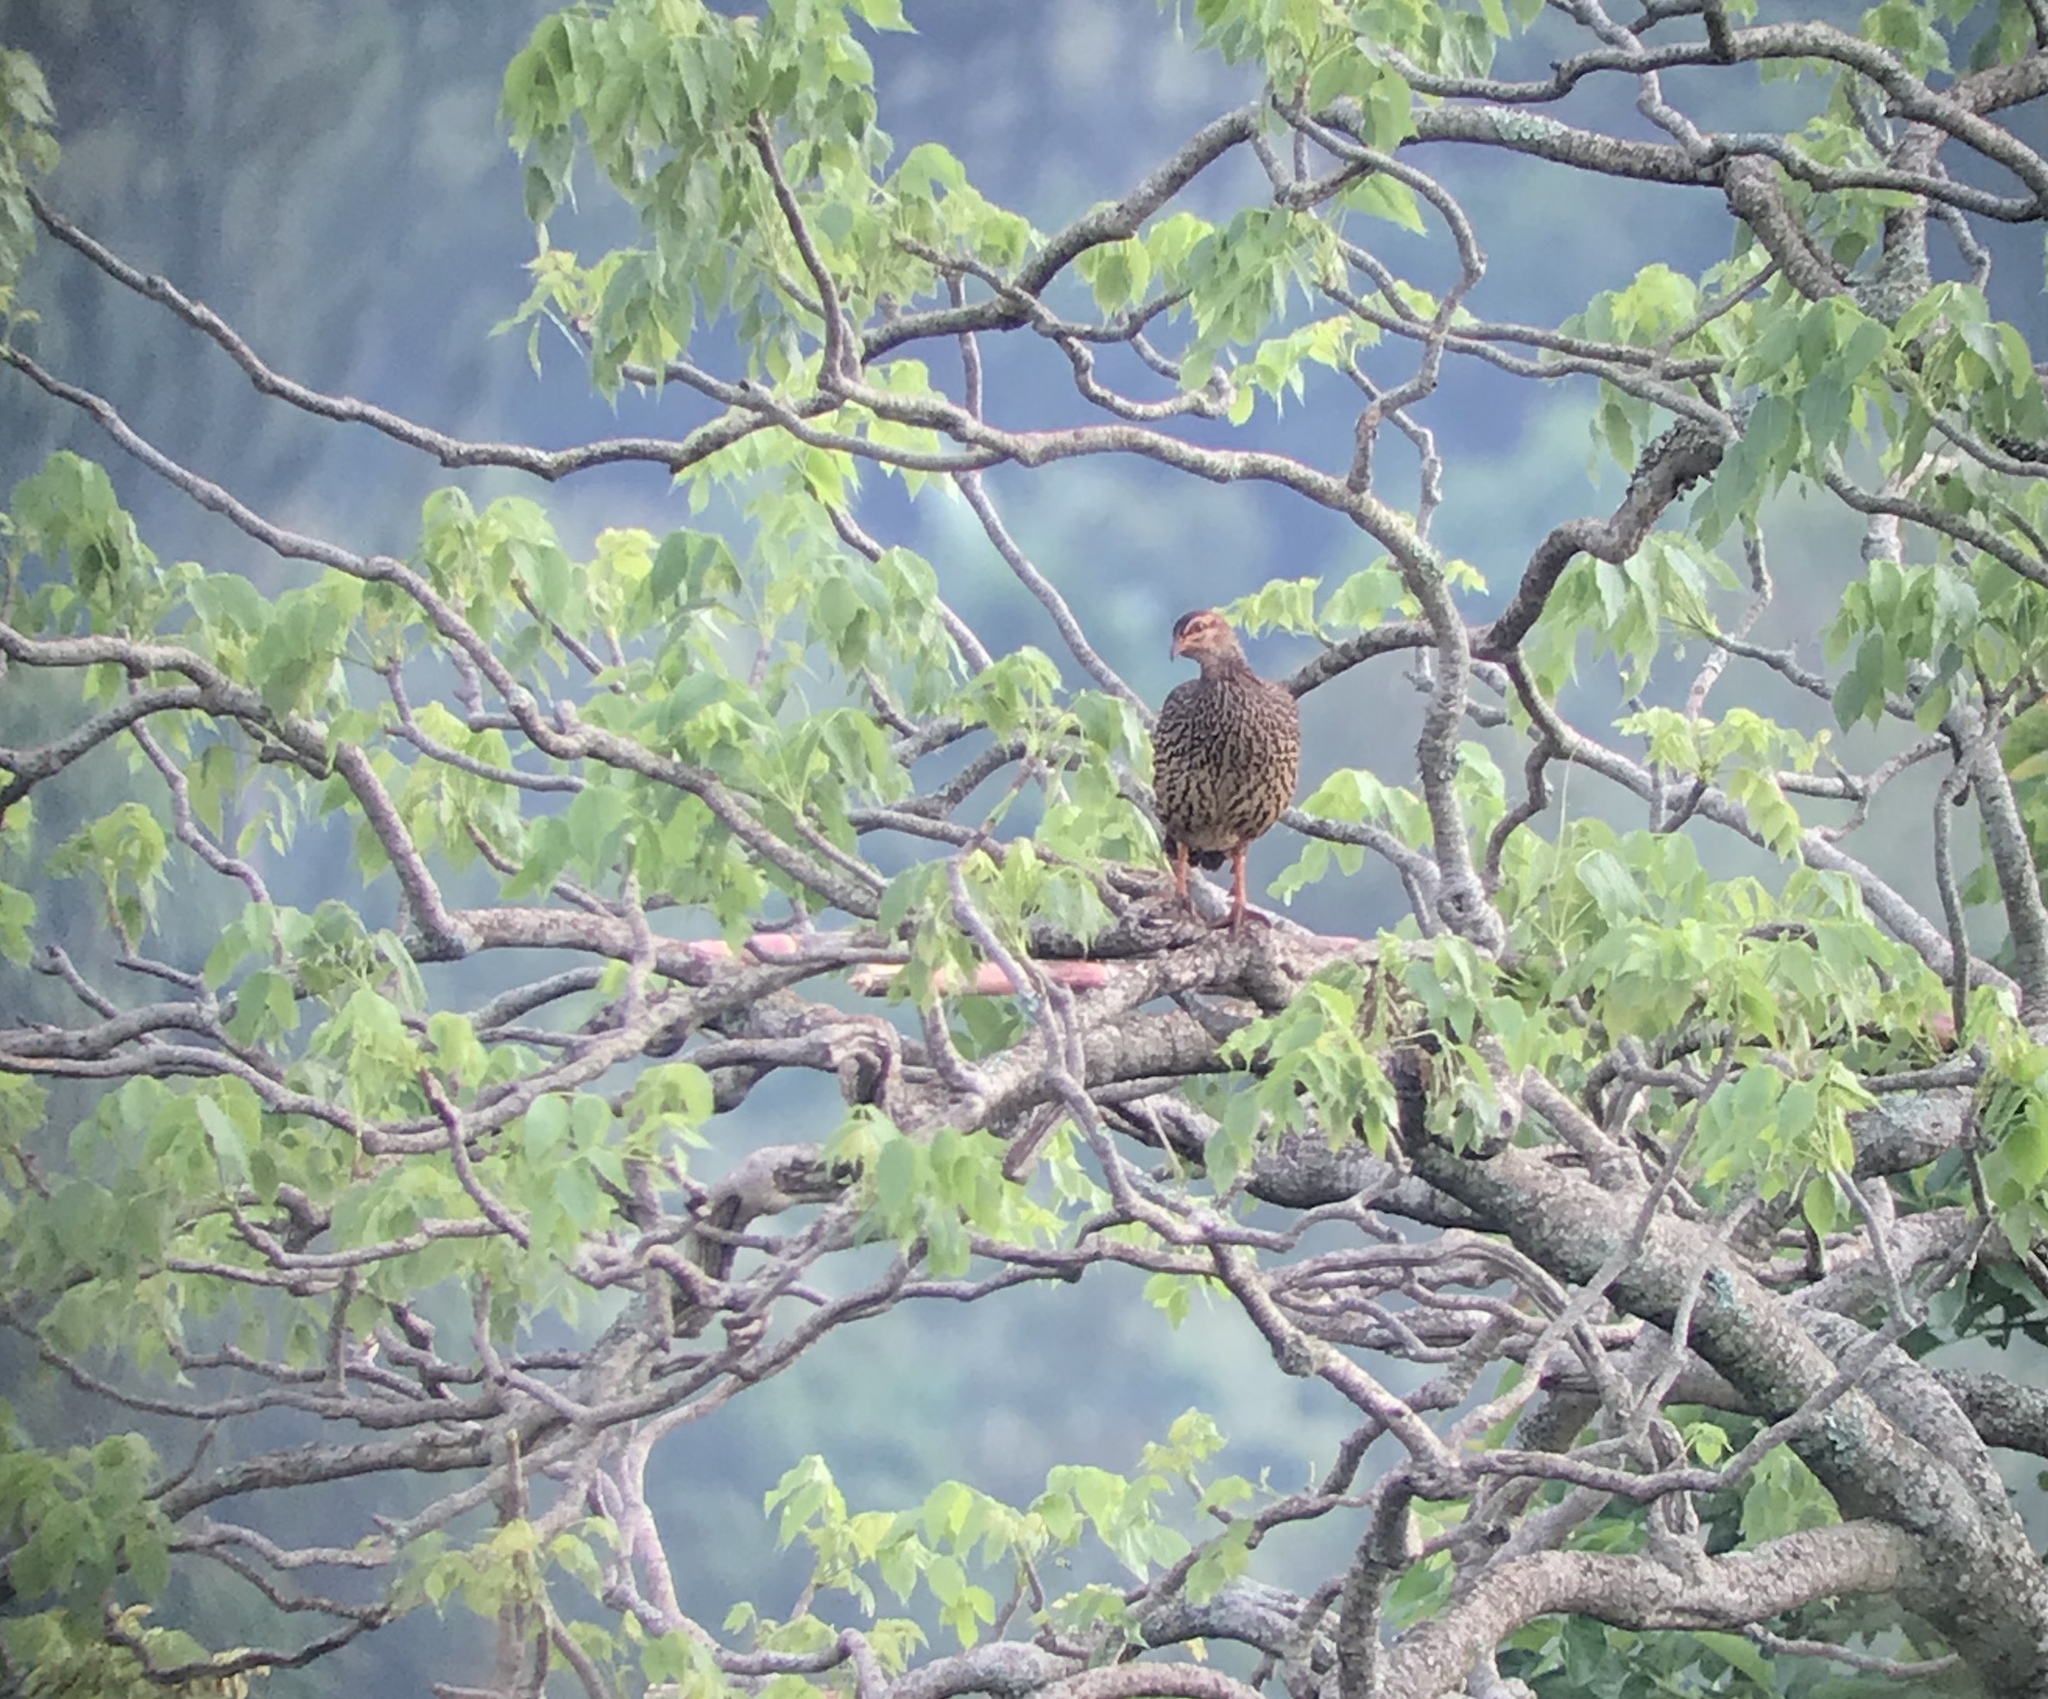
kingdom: Animalia
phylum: Chordata
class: Aves
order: Galliformes
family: Phasianidae
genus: Pternistis
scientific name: Pternistis icterorhynchus
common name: Heuglin's francolin
